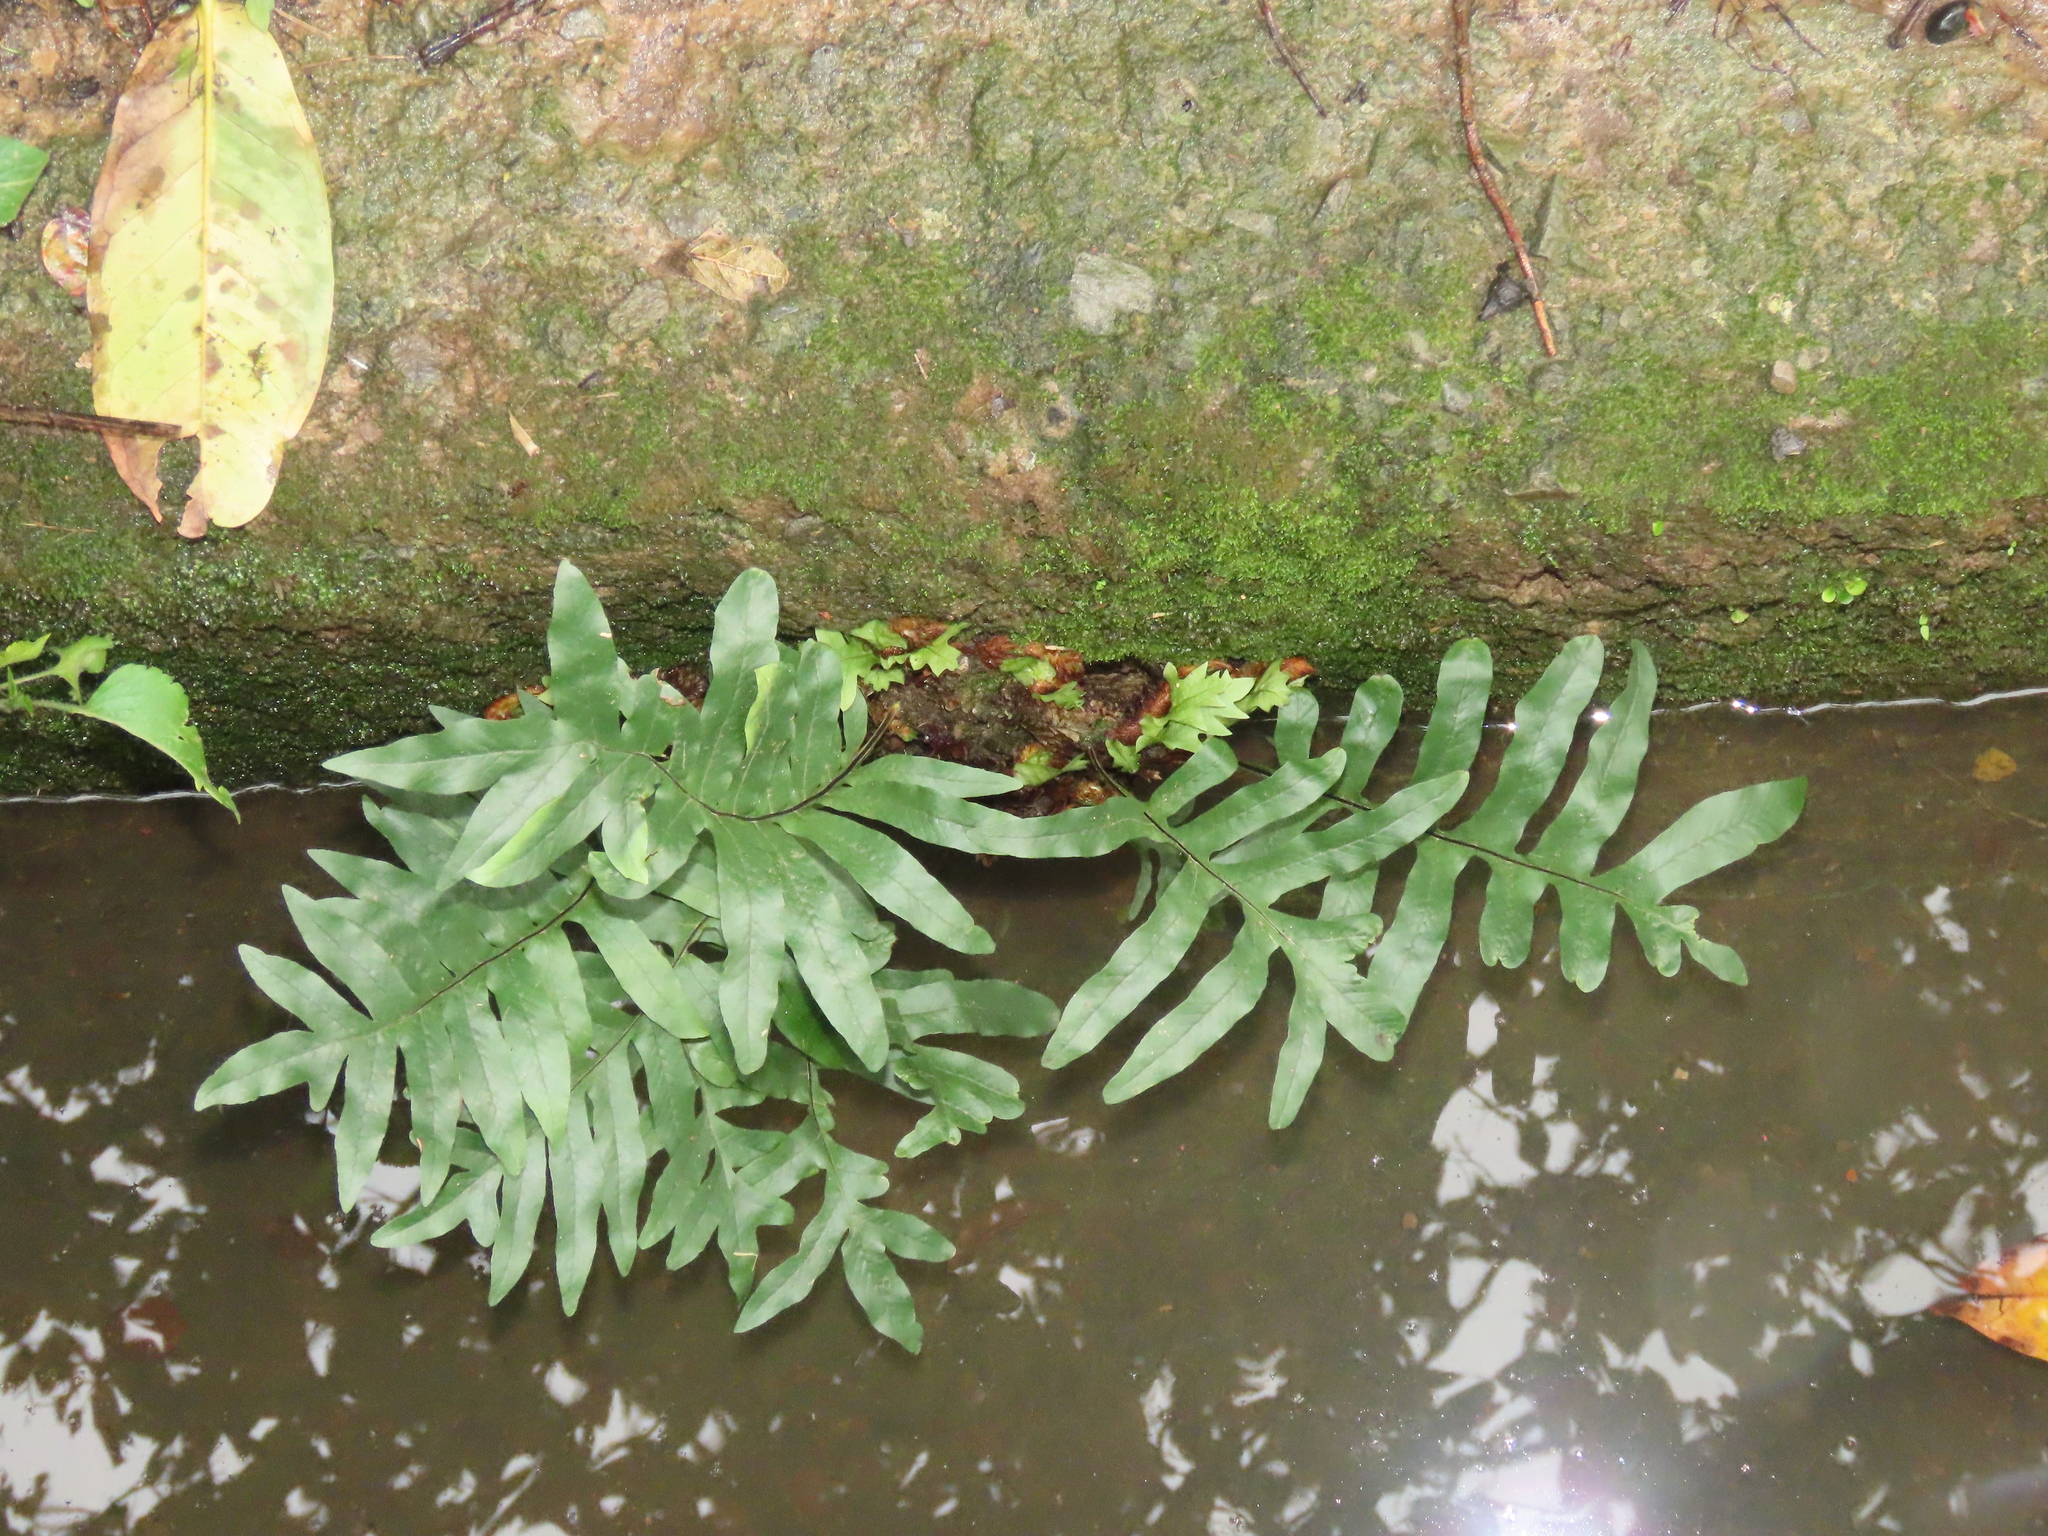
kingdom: Plantae
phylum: Tracheophyta
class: Polypodiopsida
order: Polypodiales
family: Polypodiaceae
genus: Drynaria
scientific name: Drynaria roosii
